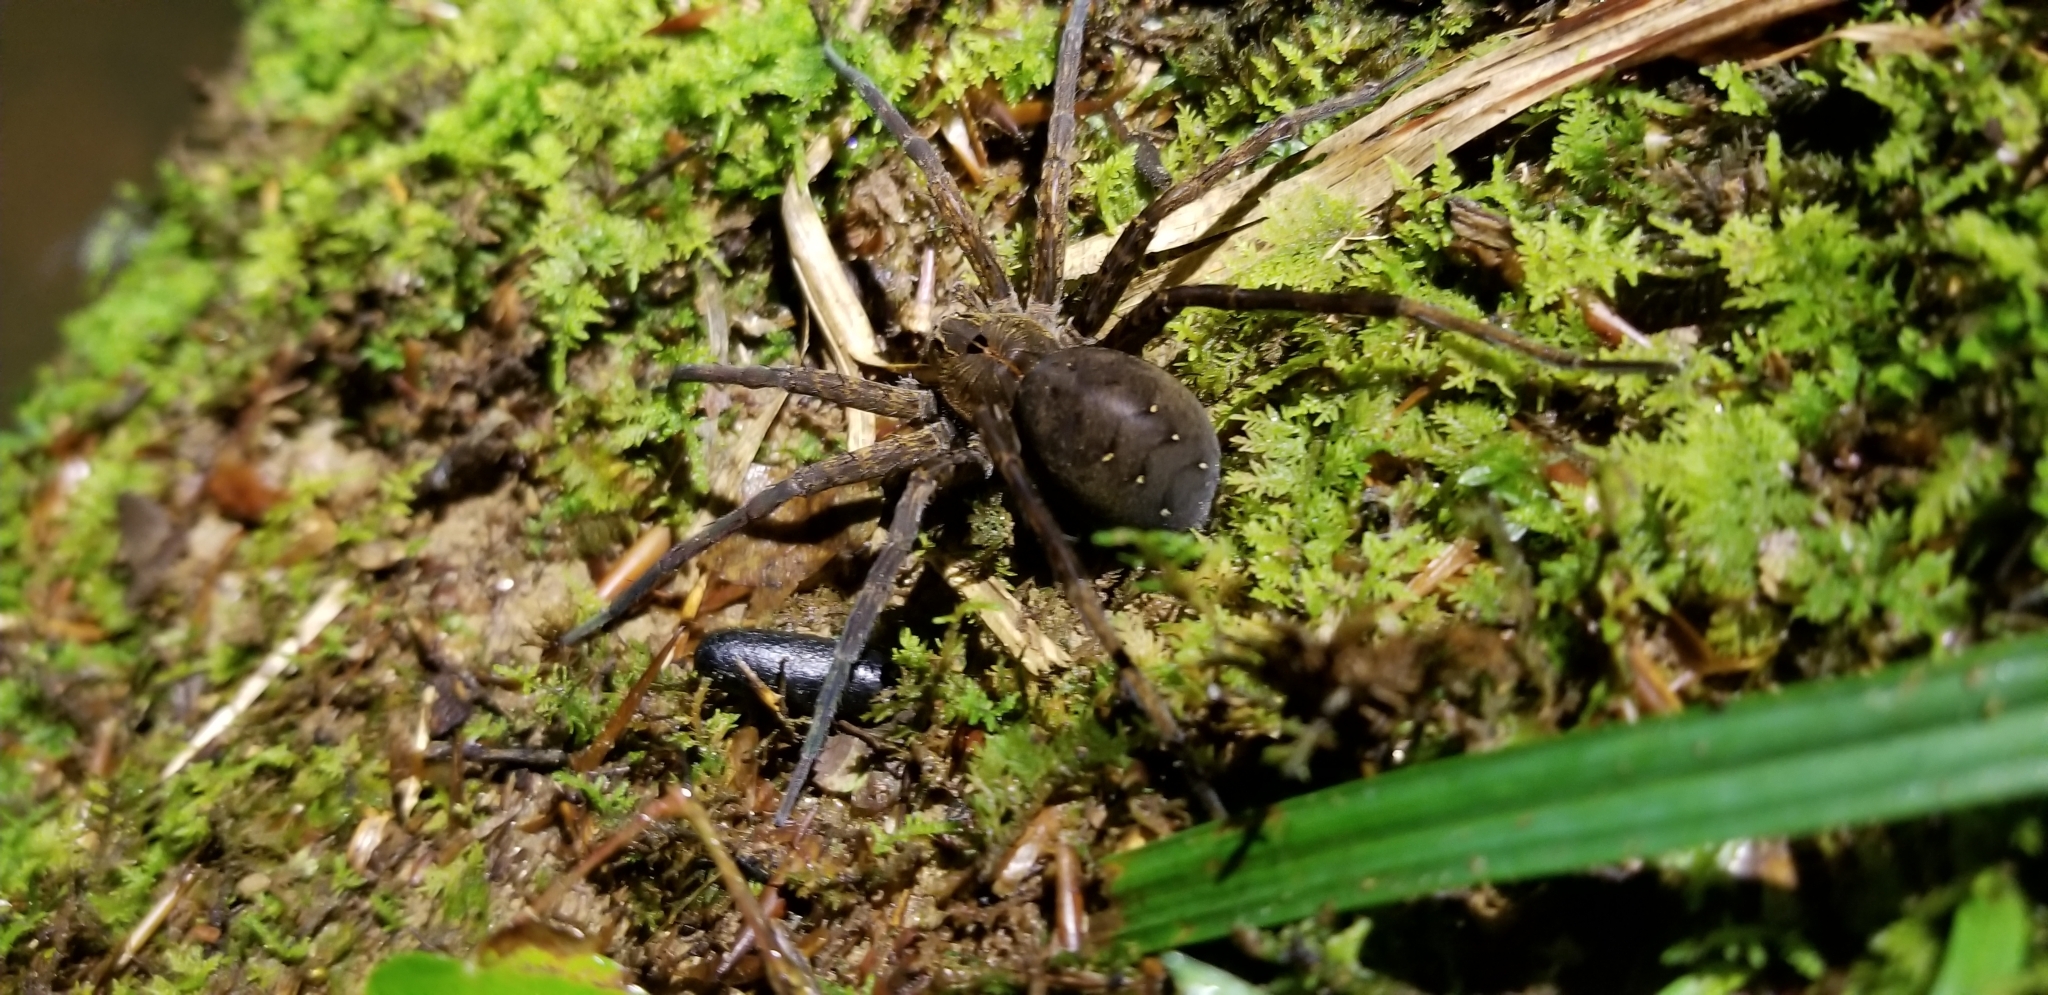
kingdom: Animalia
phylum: Arthropoda
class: Arachnida
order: Araneae
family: Pisauridae
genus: Dolomedes
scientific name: Dolomedes tenebrosus
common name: Dark fishing spider
